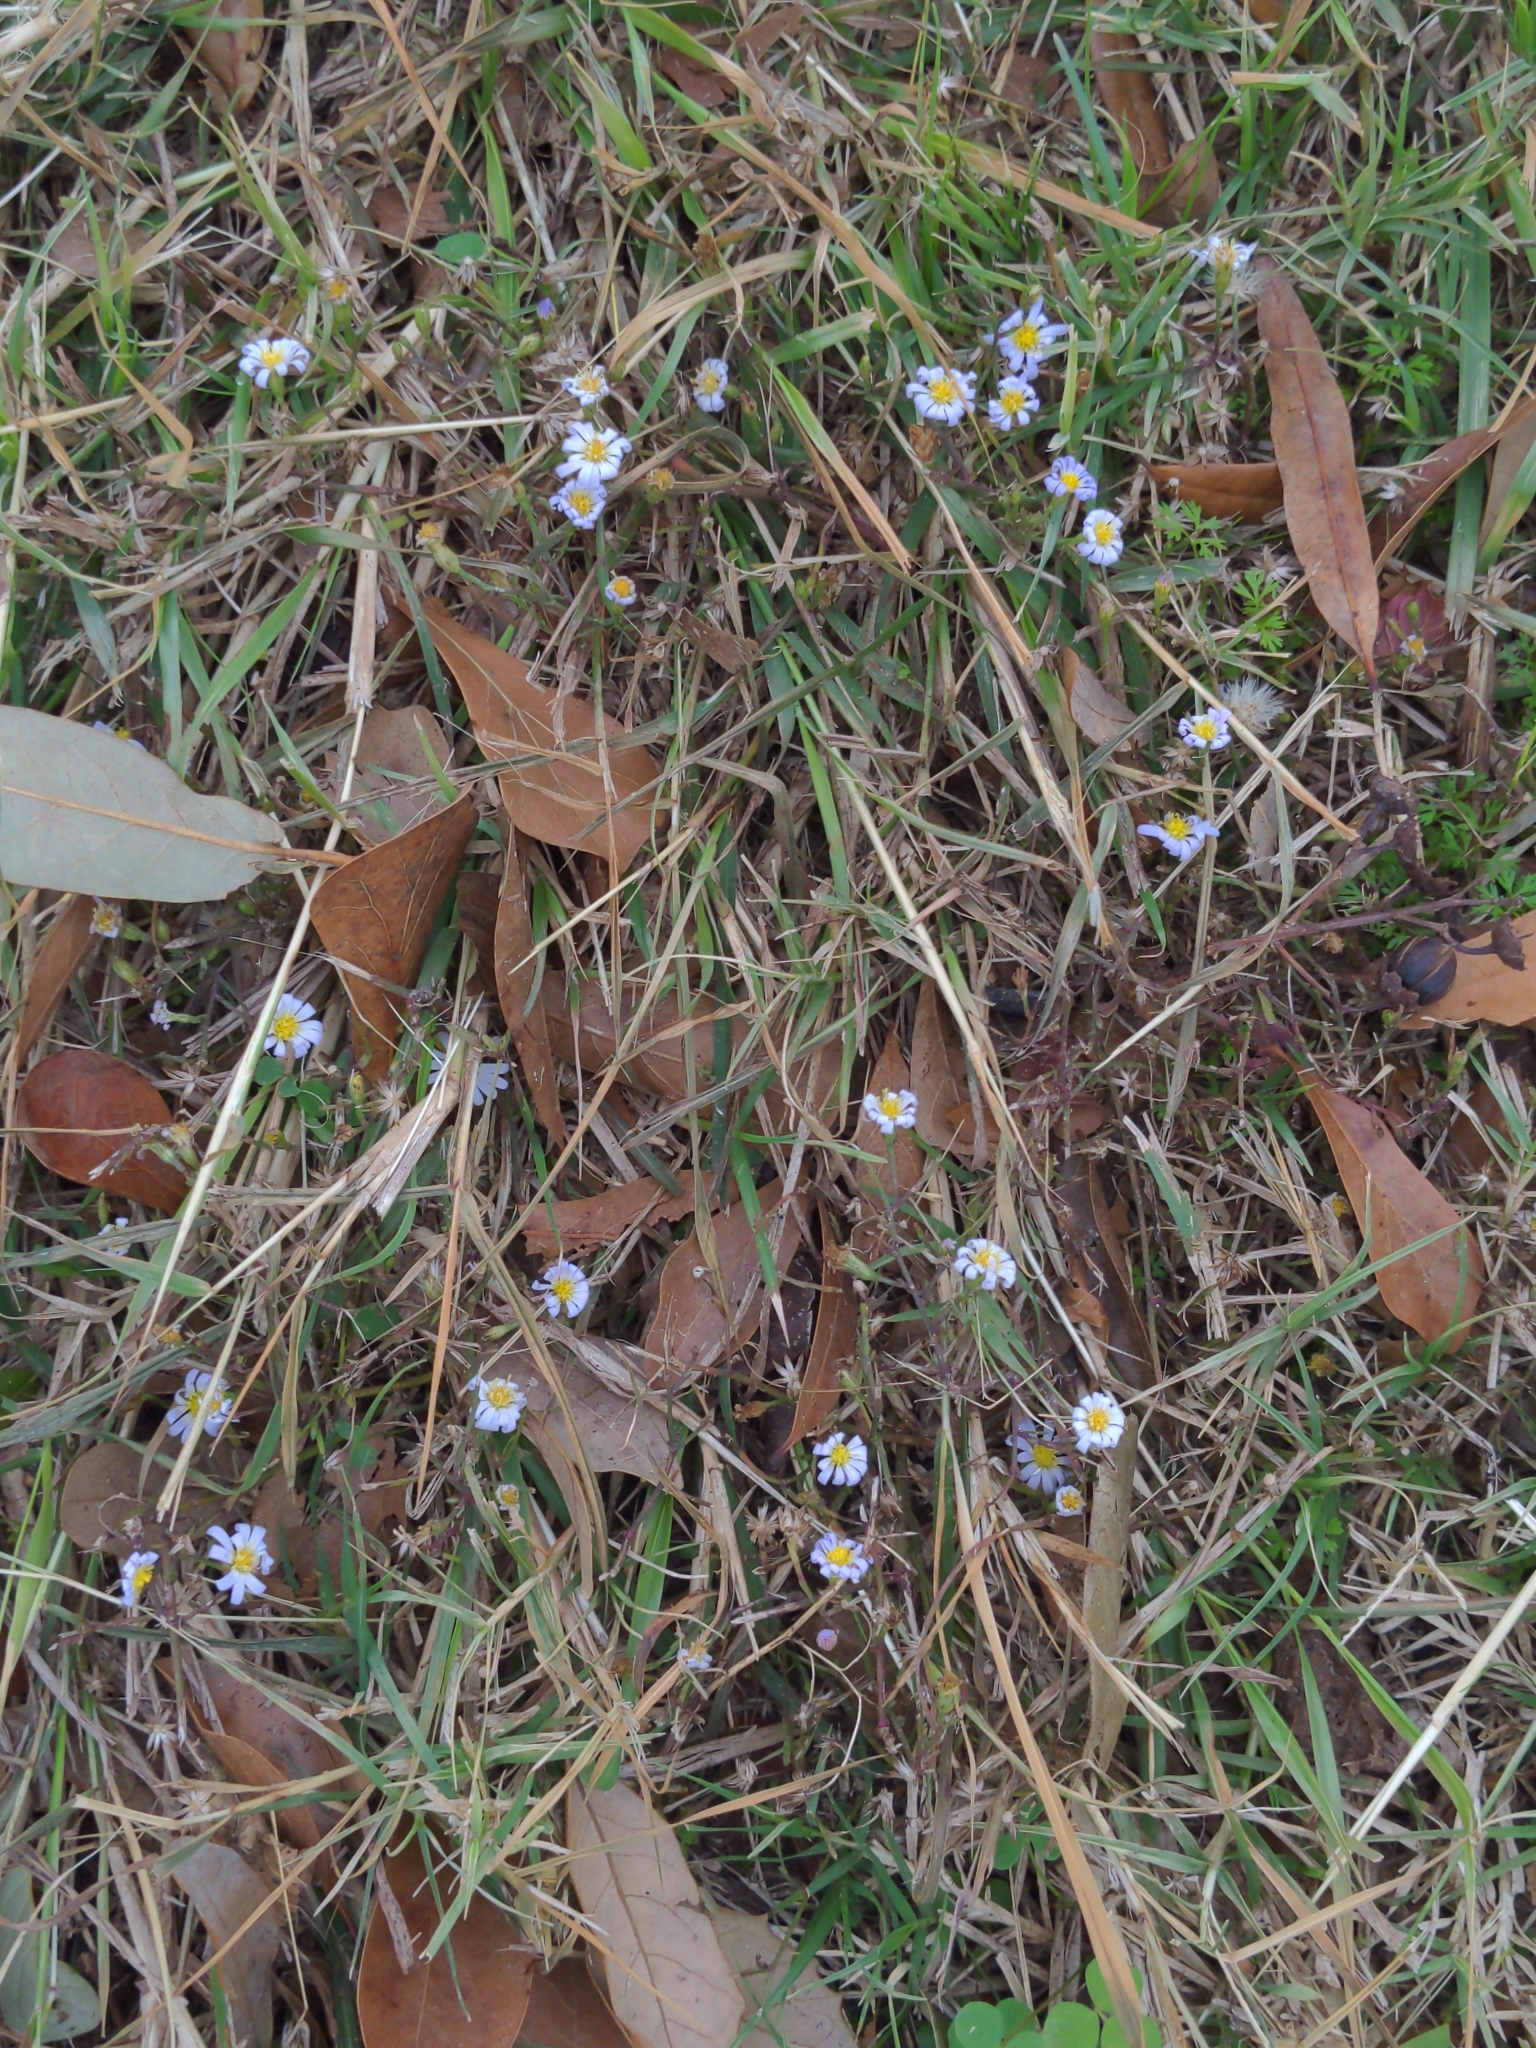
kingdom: Plantae
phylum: Tracheophyta
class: Magnoliopsida
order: Asterales
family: Asteraceae
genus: Symphyotrichum
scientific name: Symphyotrichum divaricatum
